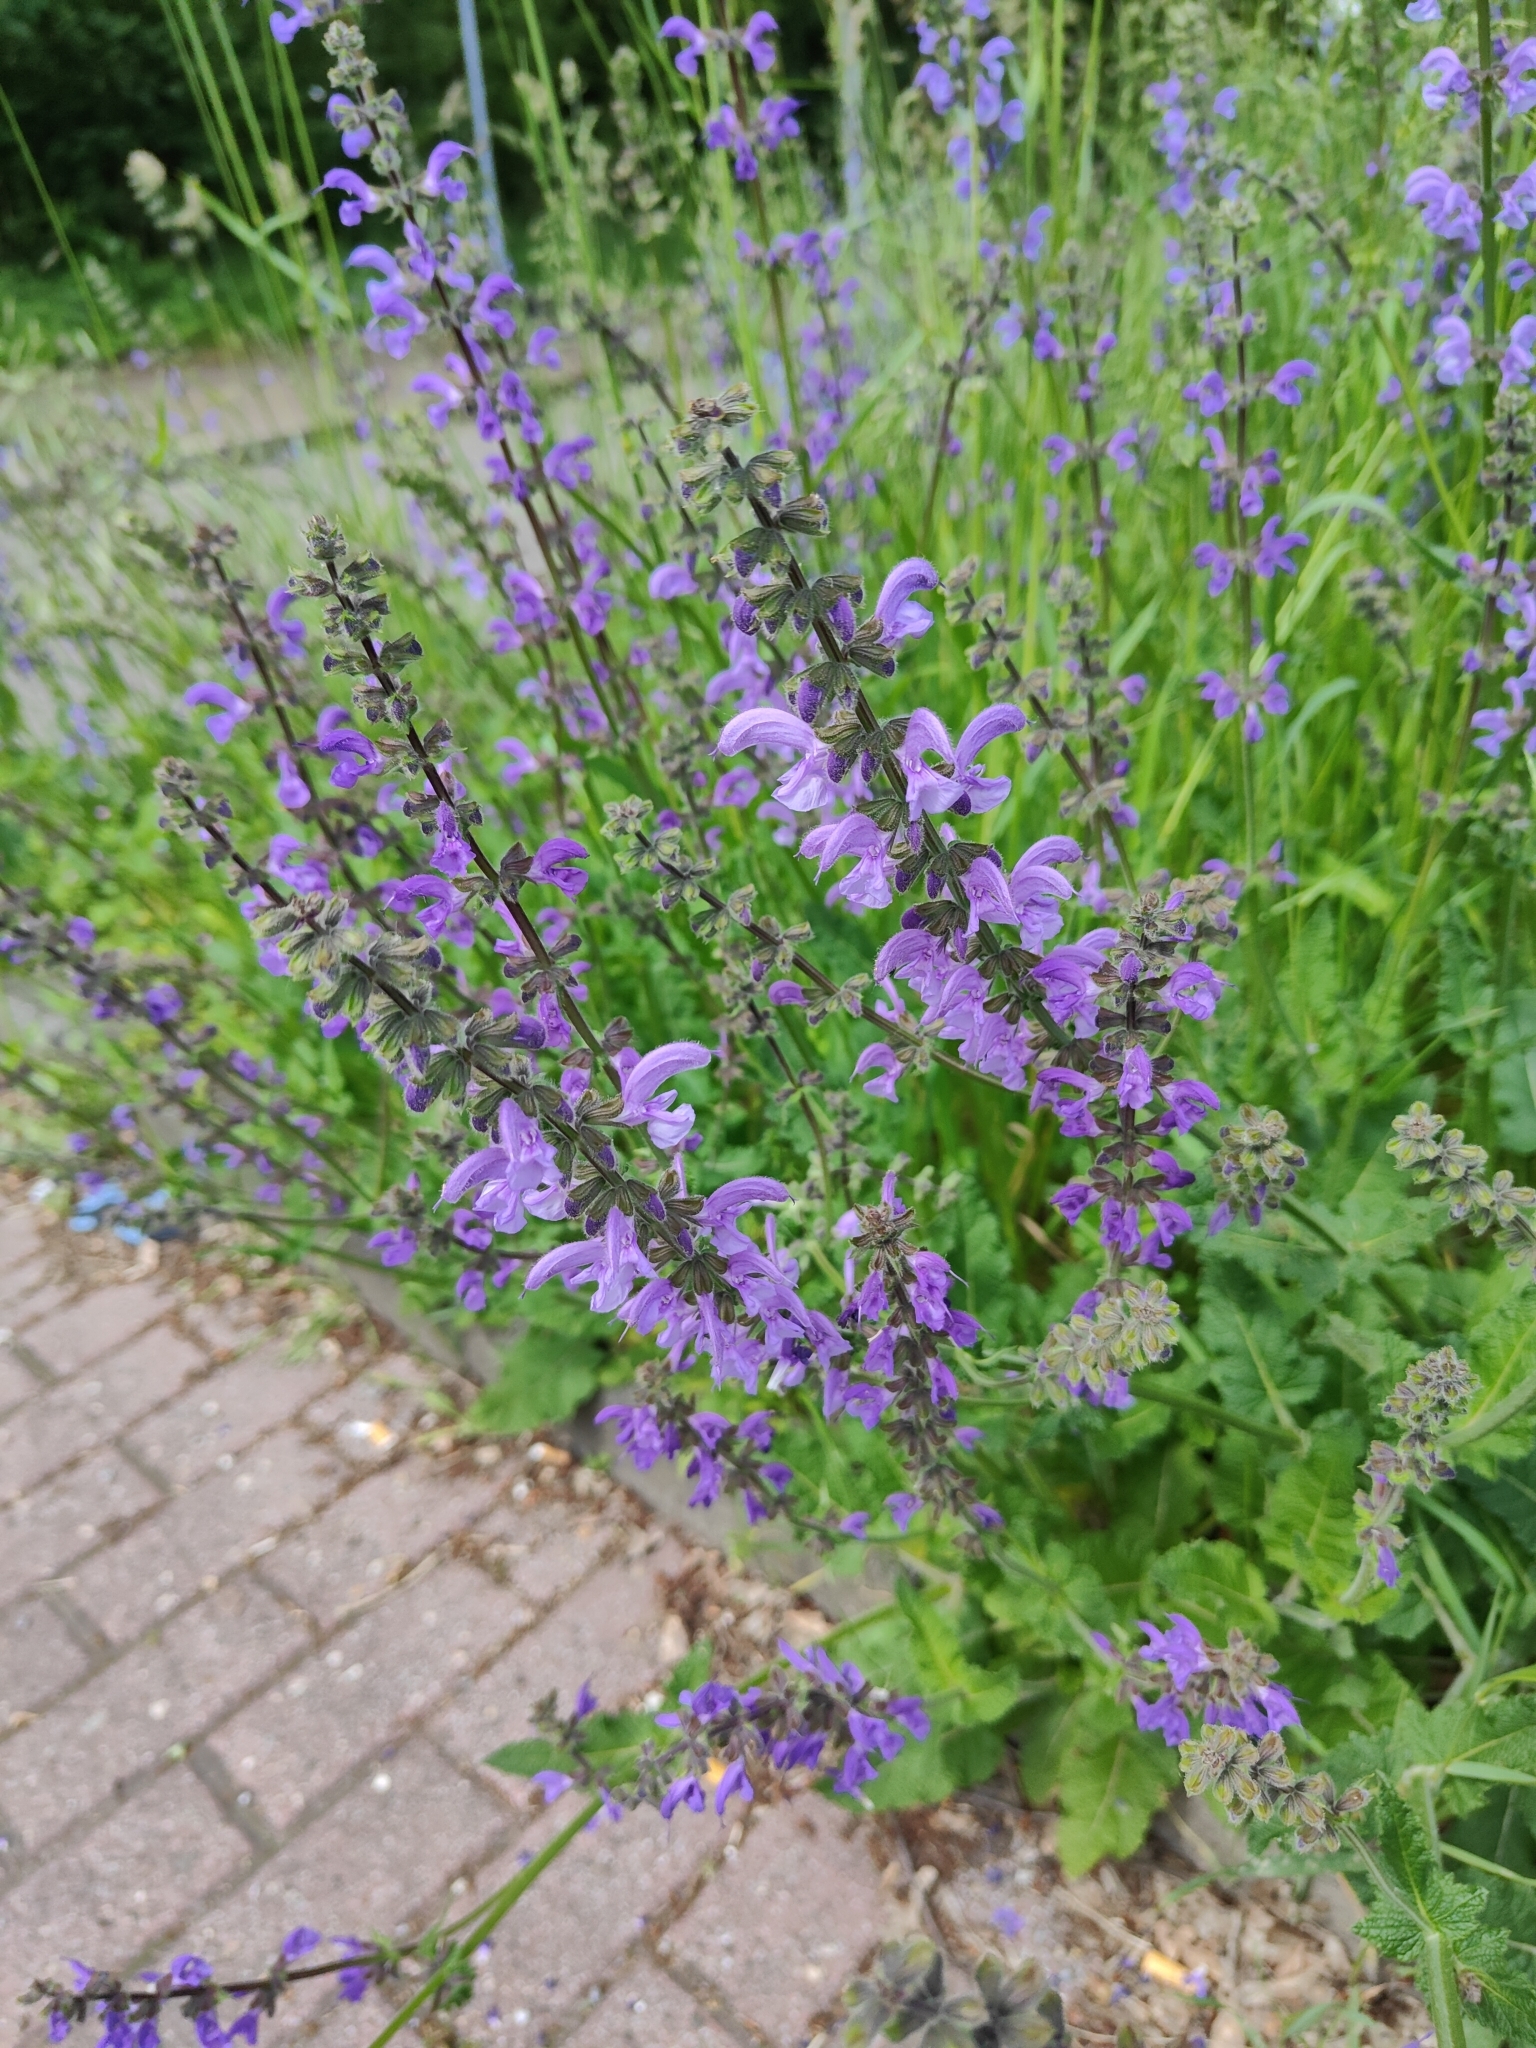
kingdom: Plantae
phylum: Tracheophyta
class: Magnoliopsida
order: Lamiales
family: Lamiaceae
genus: Salvia
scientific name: Salvia pratensis
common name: Meadow sage
